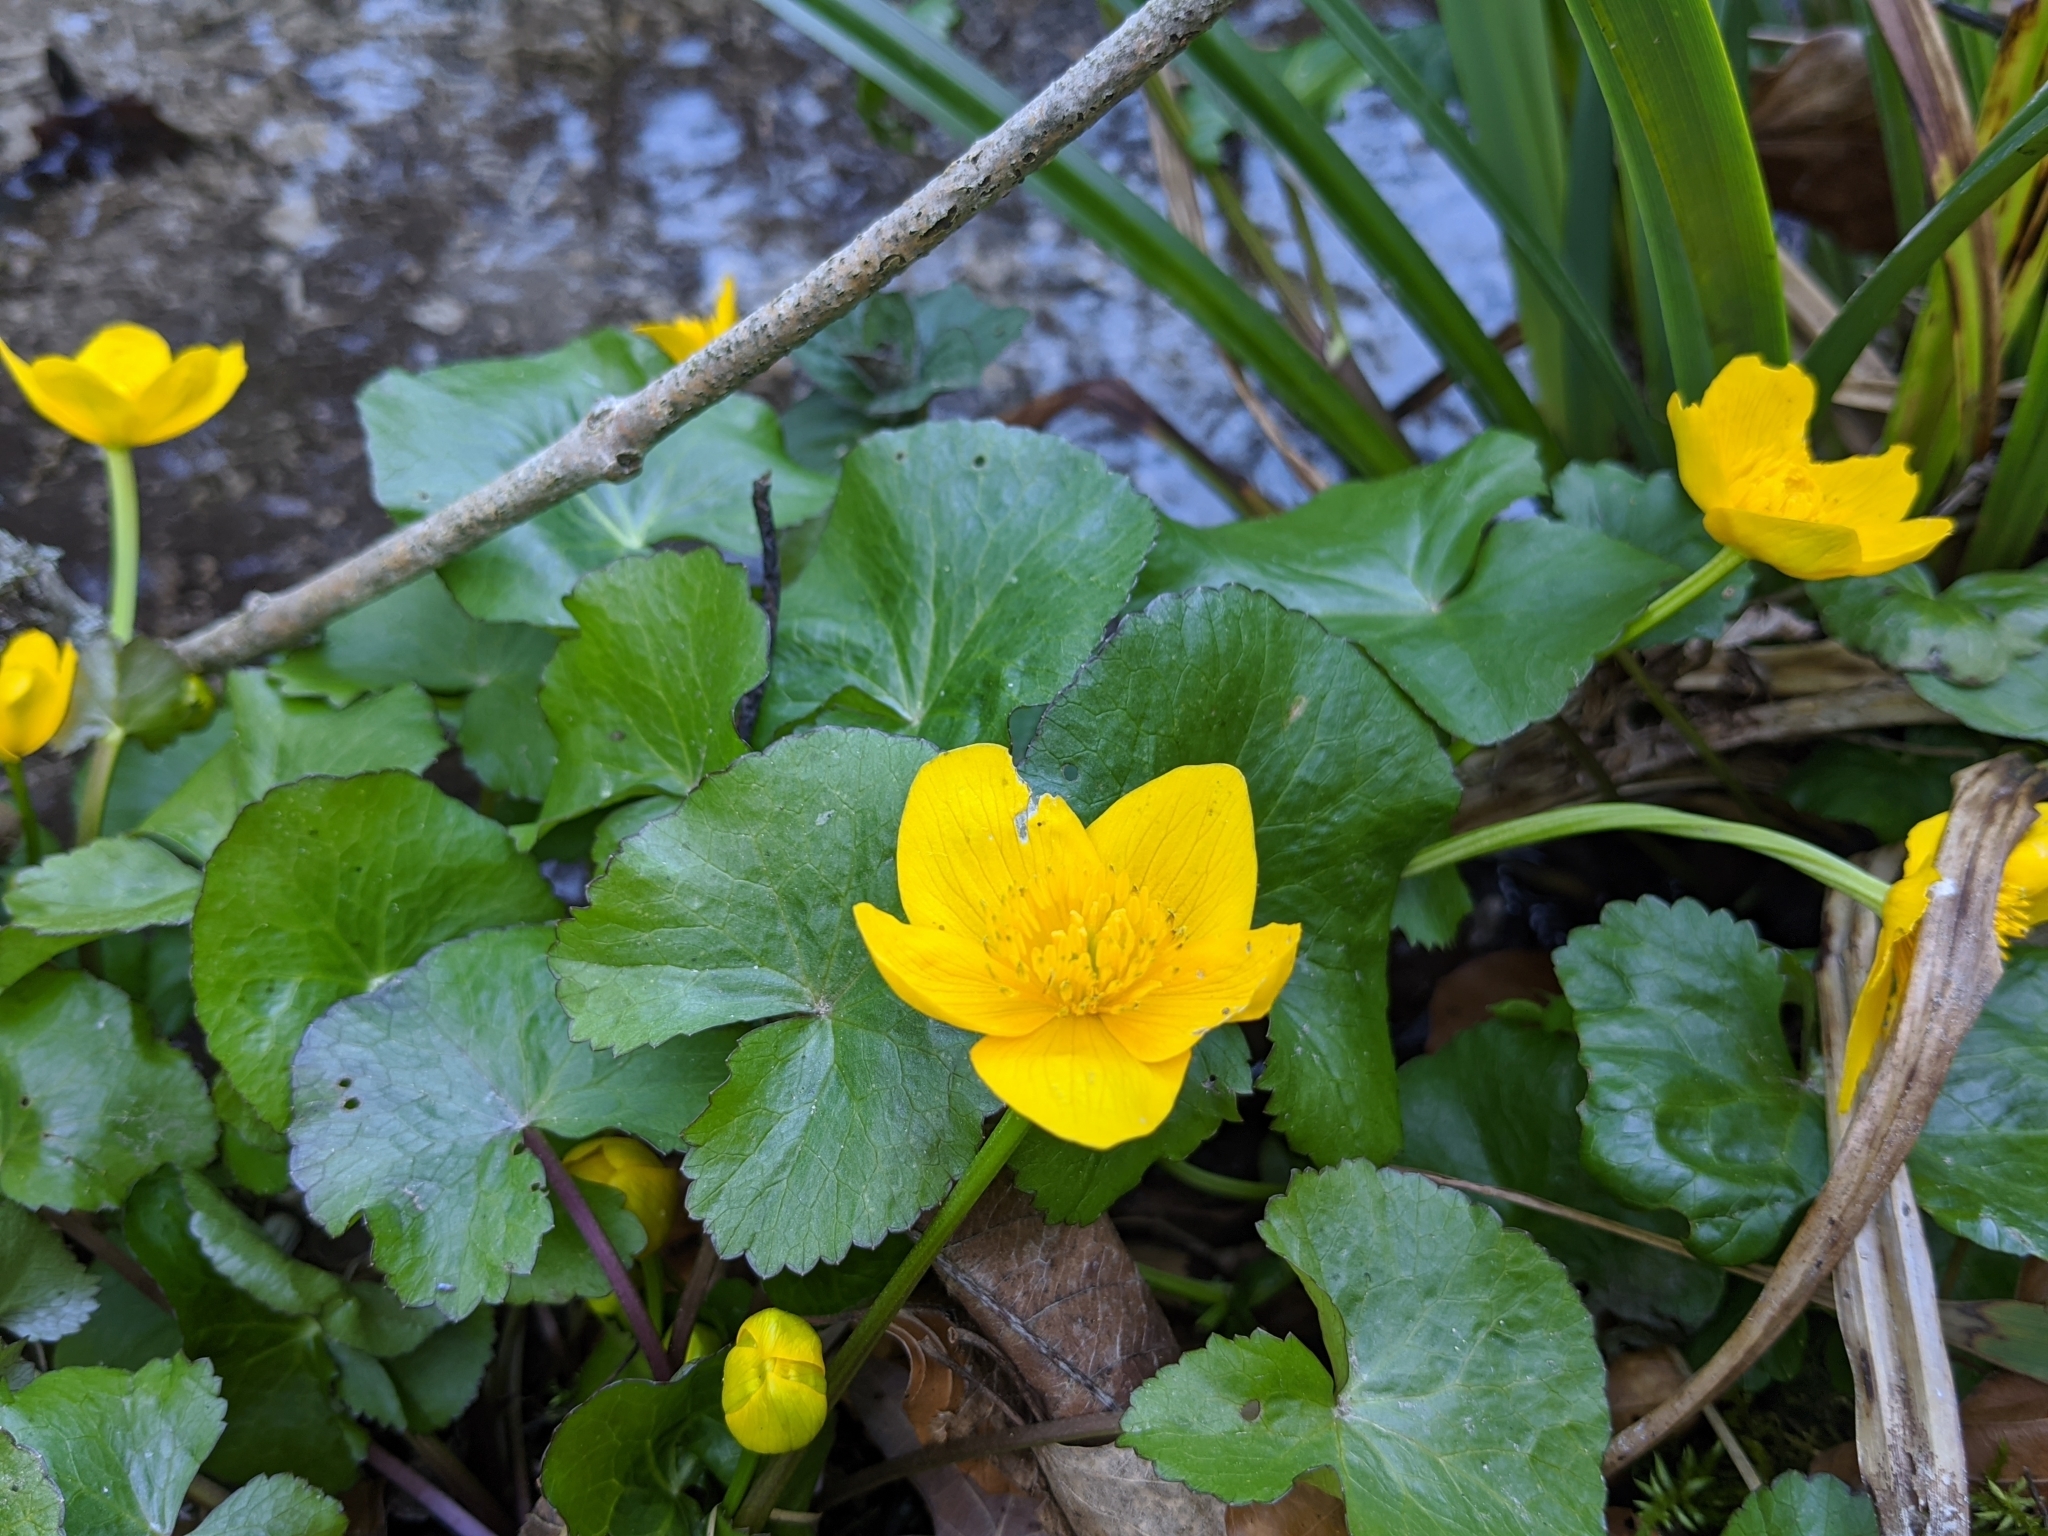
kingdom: Plantae
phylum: Tracheophyta
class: Magnoliopsida
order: Ranunculales
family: Ranunculaceae
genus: Caltha
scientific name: Caltha palustris
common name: Marsh marigold
